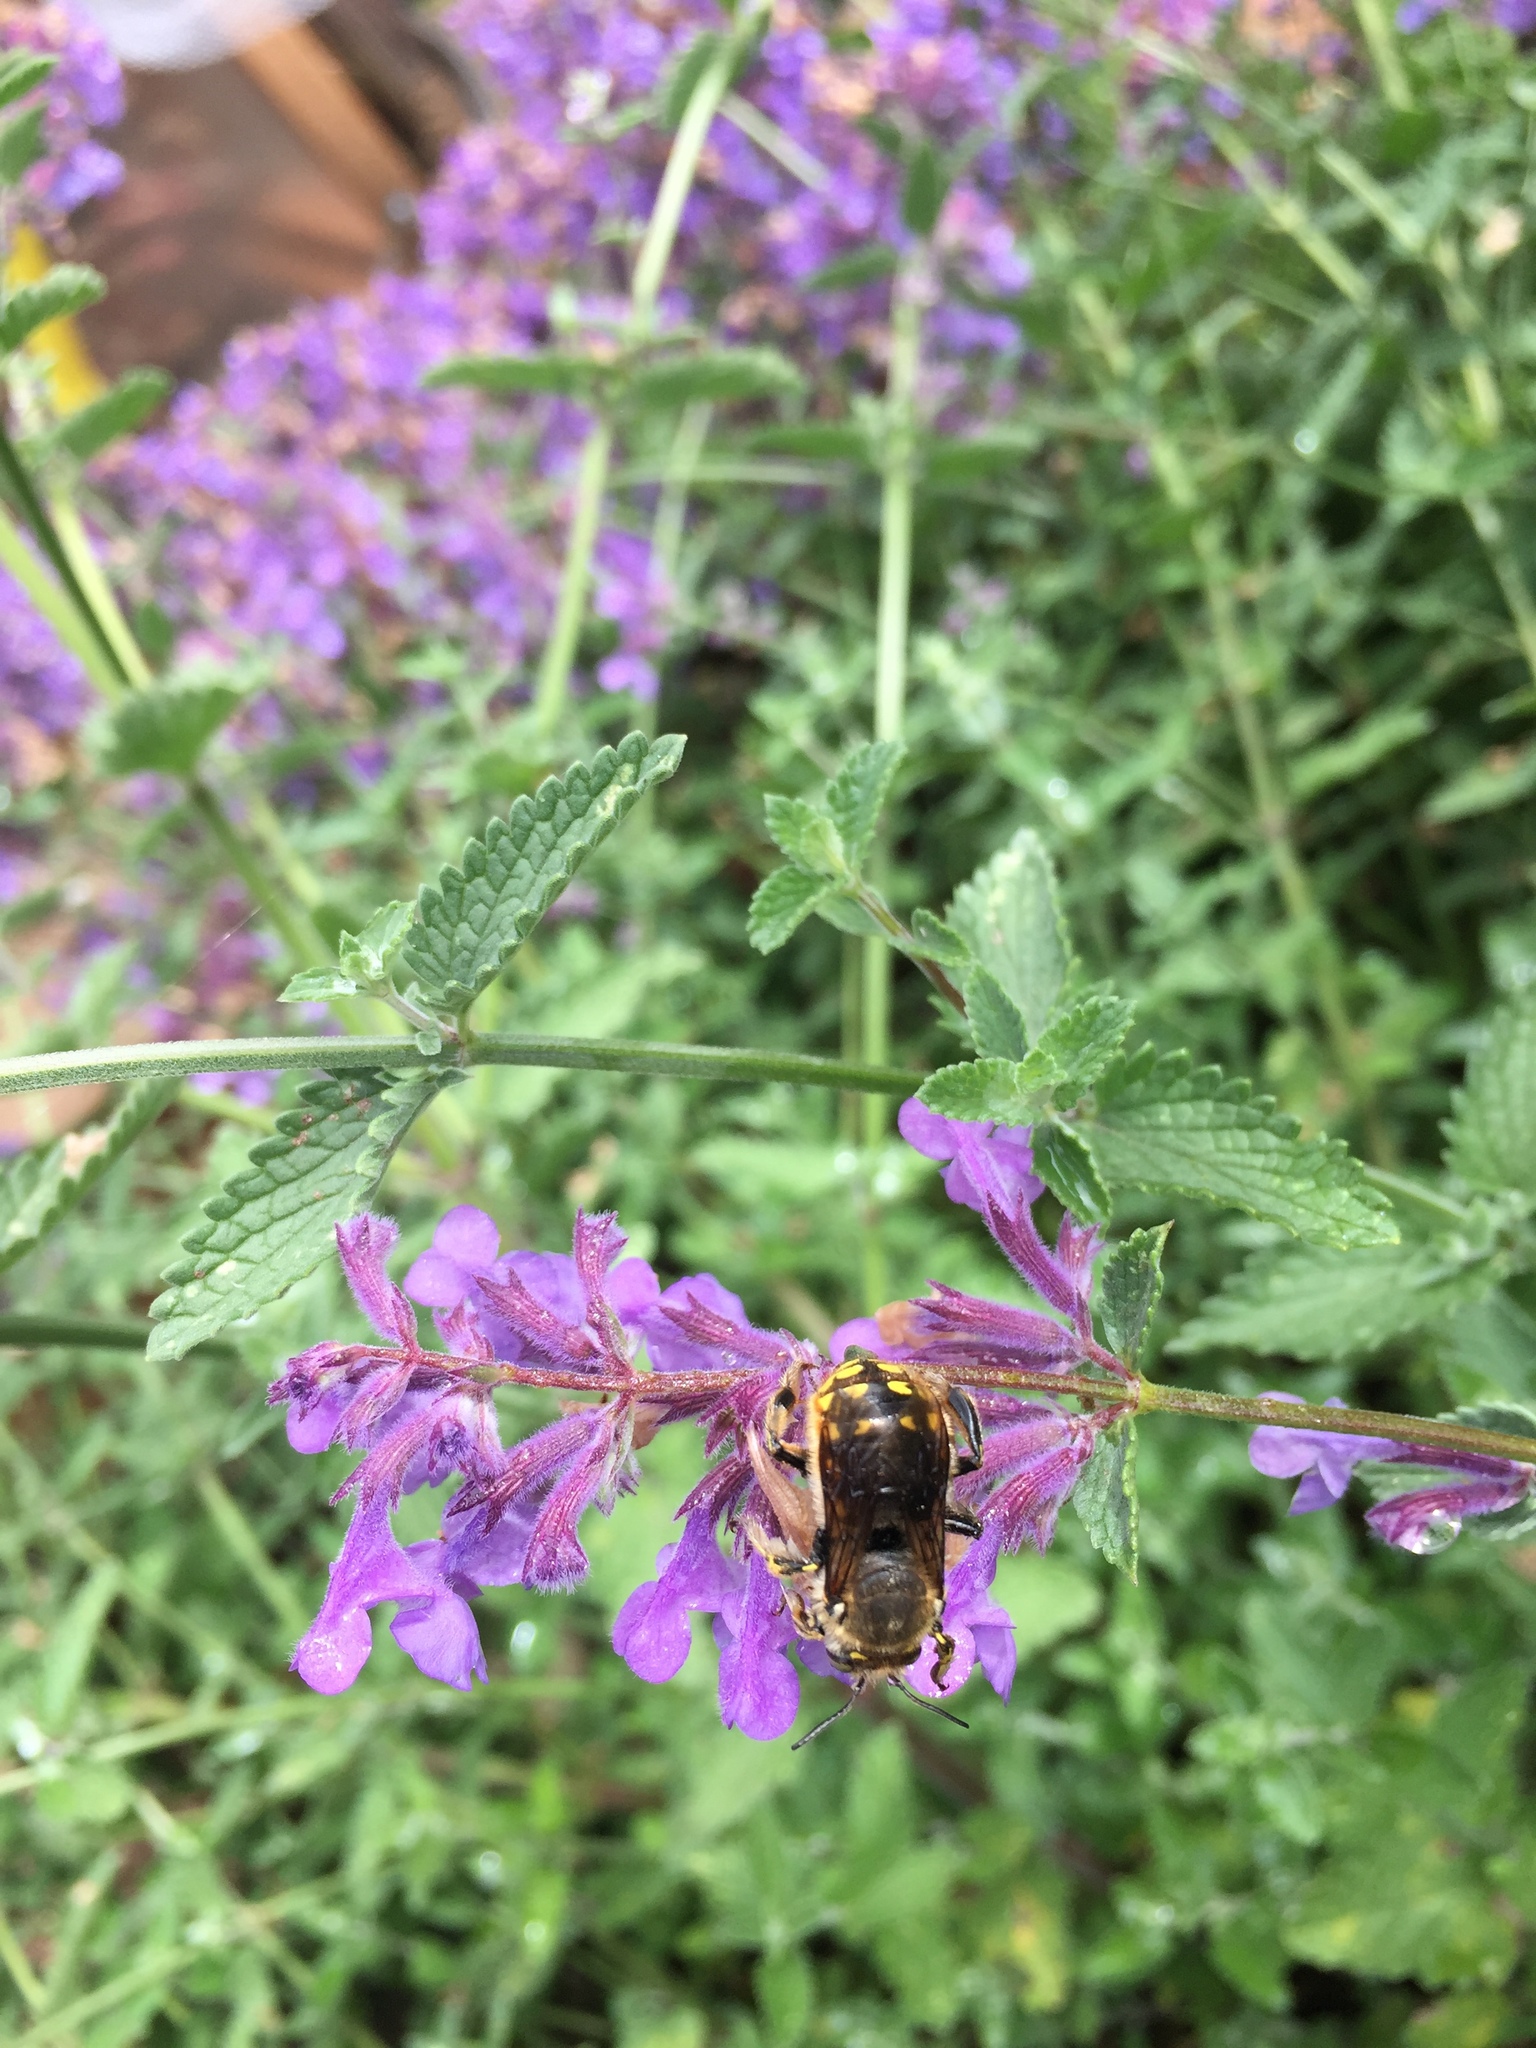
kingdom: Animalia
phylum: Arthropoda
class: Insecta
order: Hymenoptera
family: Megachilidae
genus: Anthidium
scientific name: Anthidium manicatum
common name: Wool carder bee
